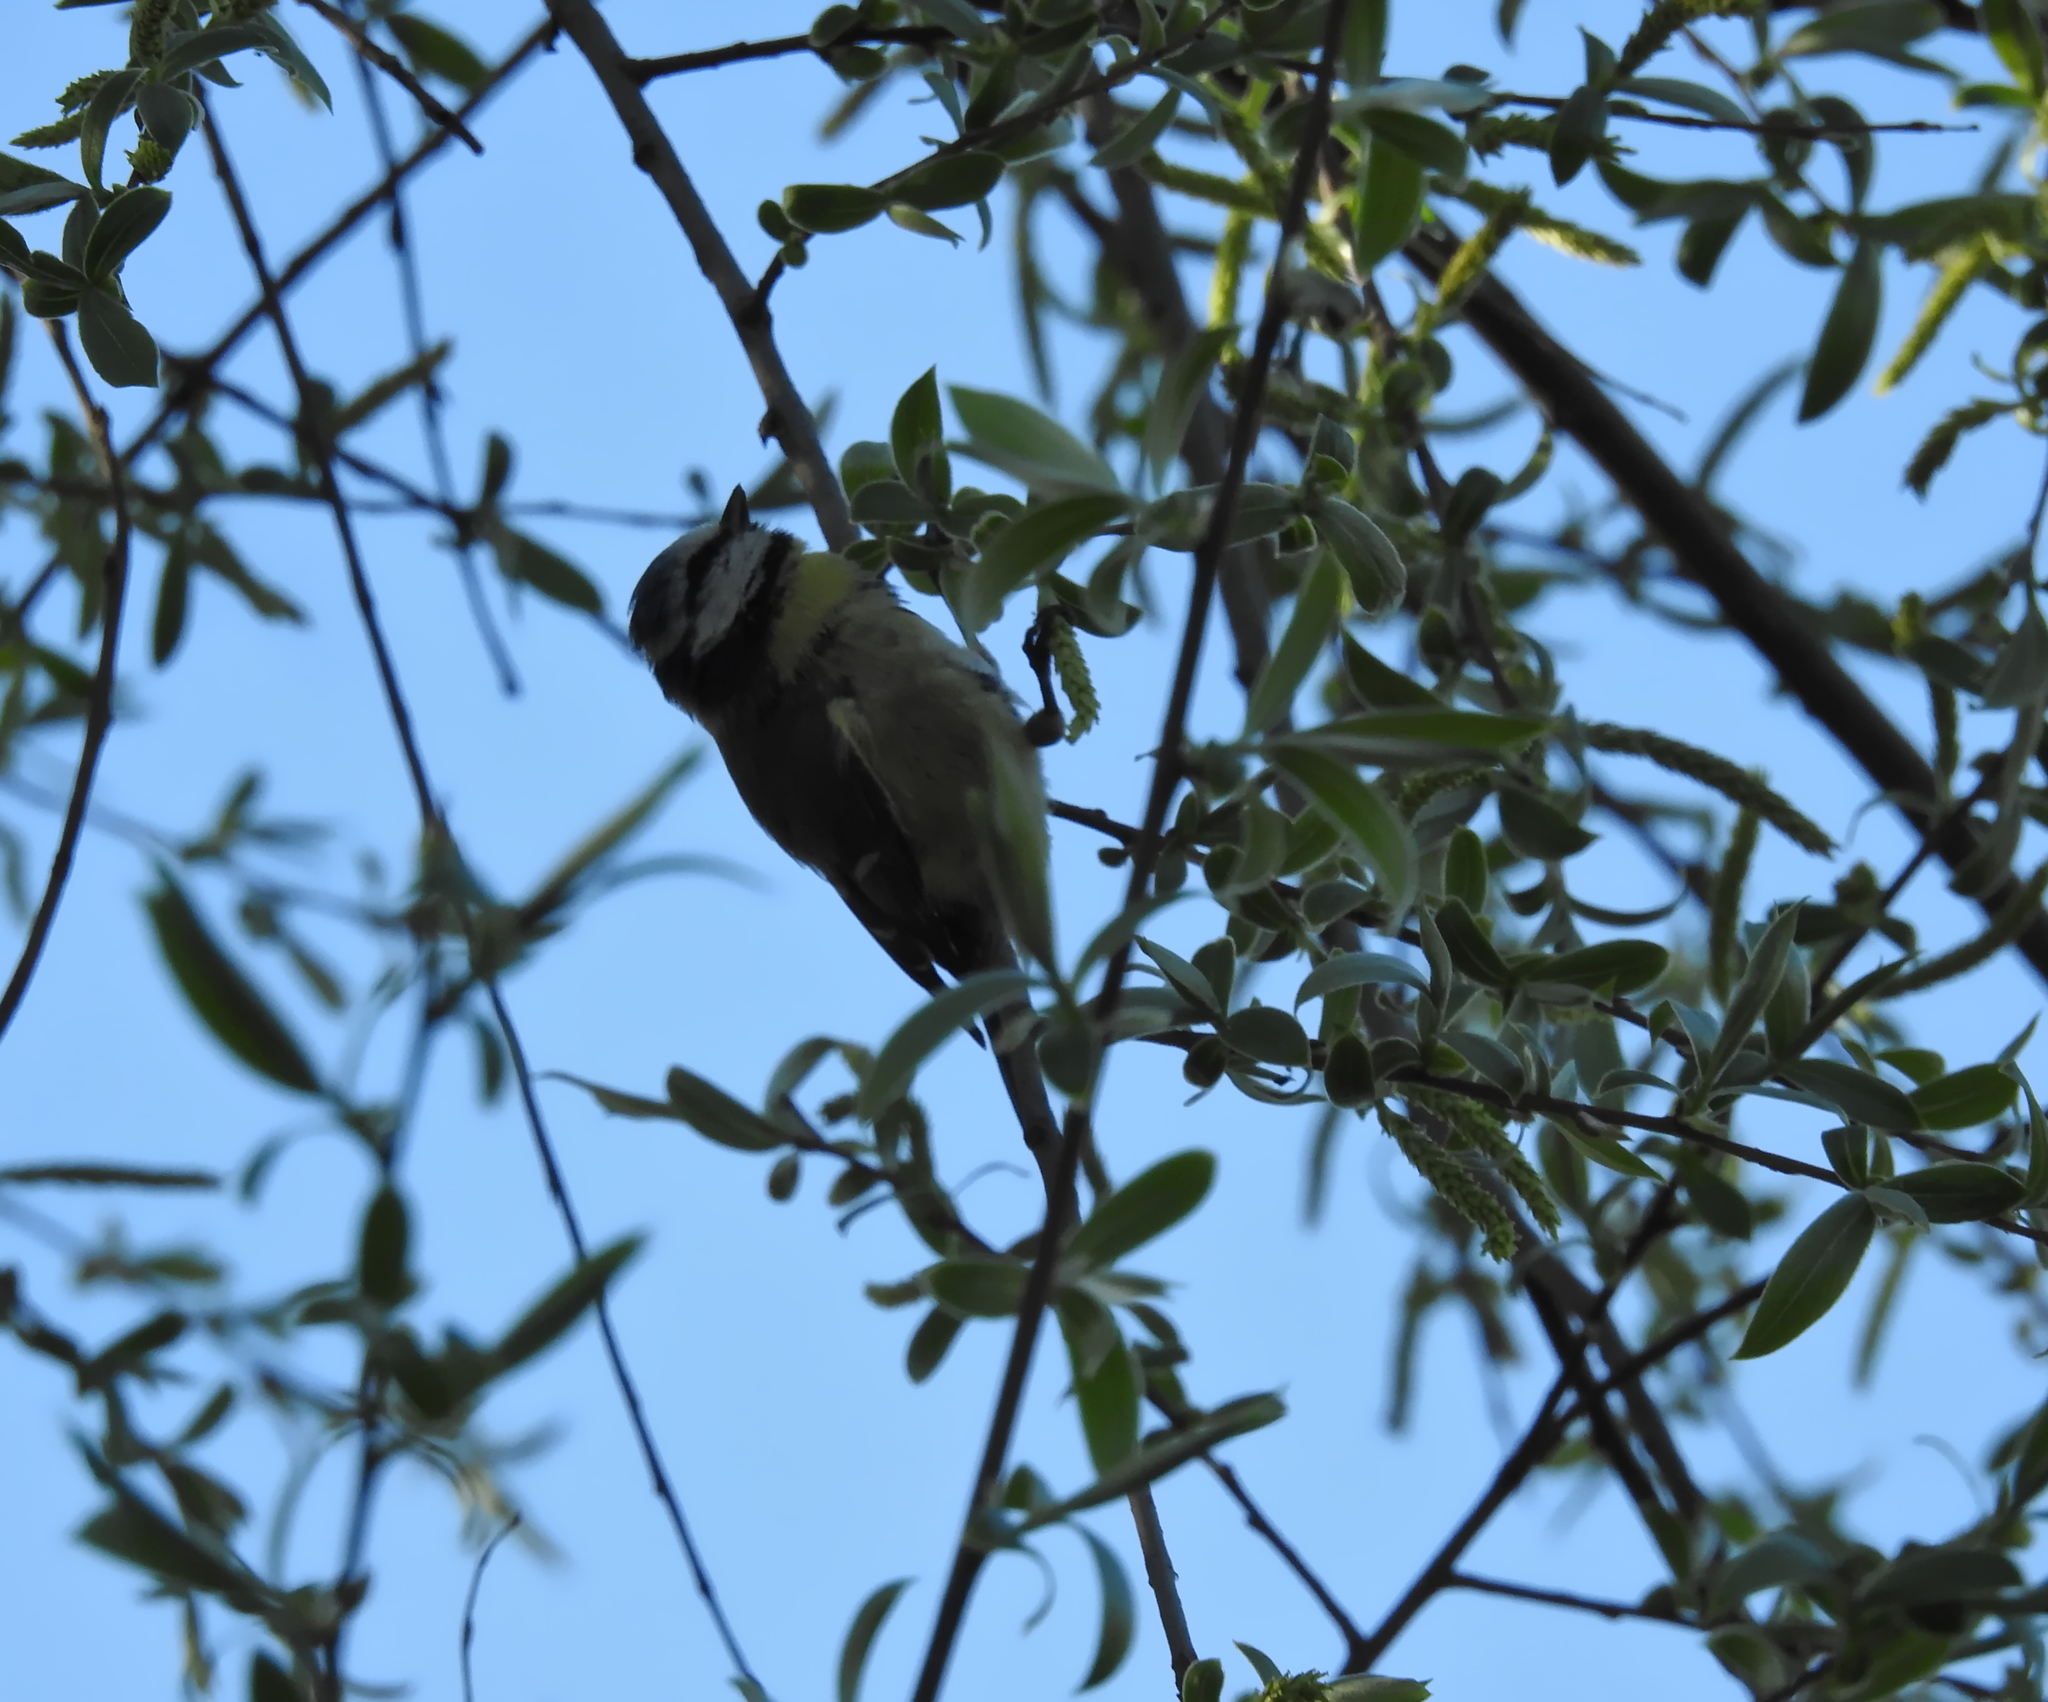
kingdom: Animalia
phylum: Chordata
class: Aves
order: Passeriformes
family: Paridae
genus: Cyanistes
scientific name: Cyanistes caeruleus
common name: Eurasian blue tit
